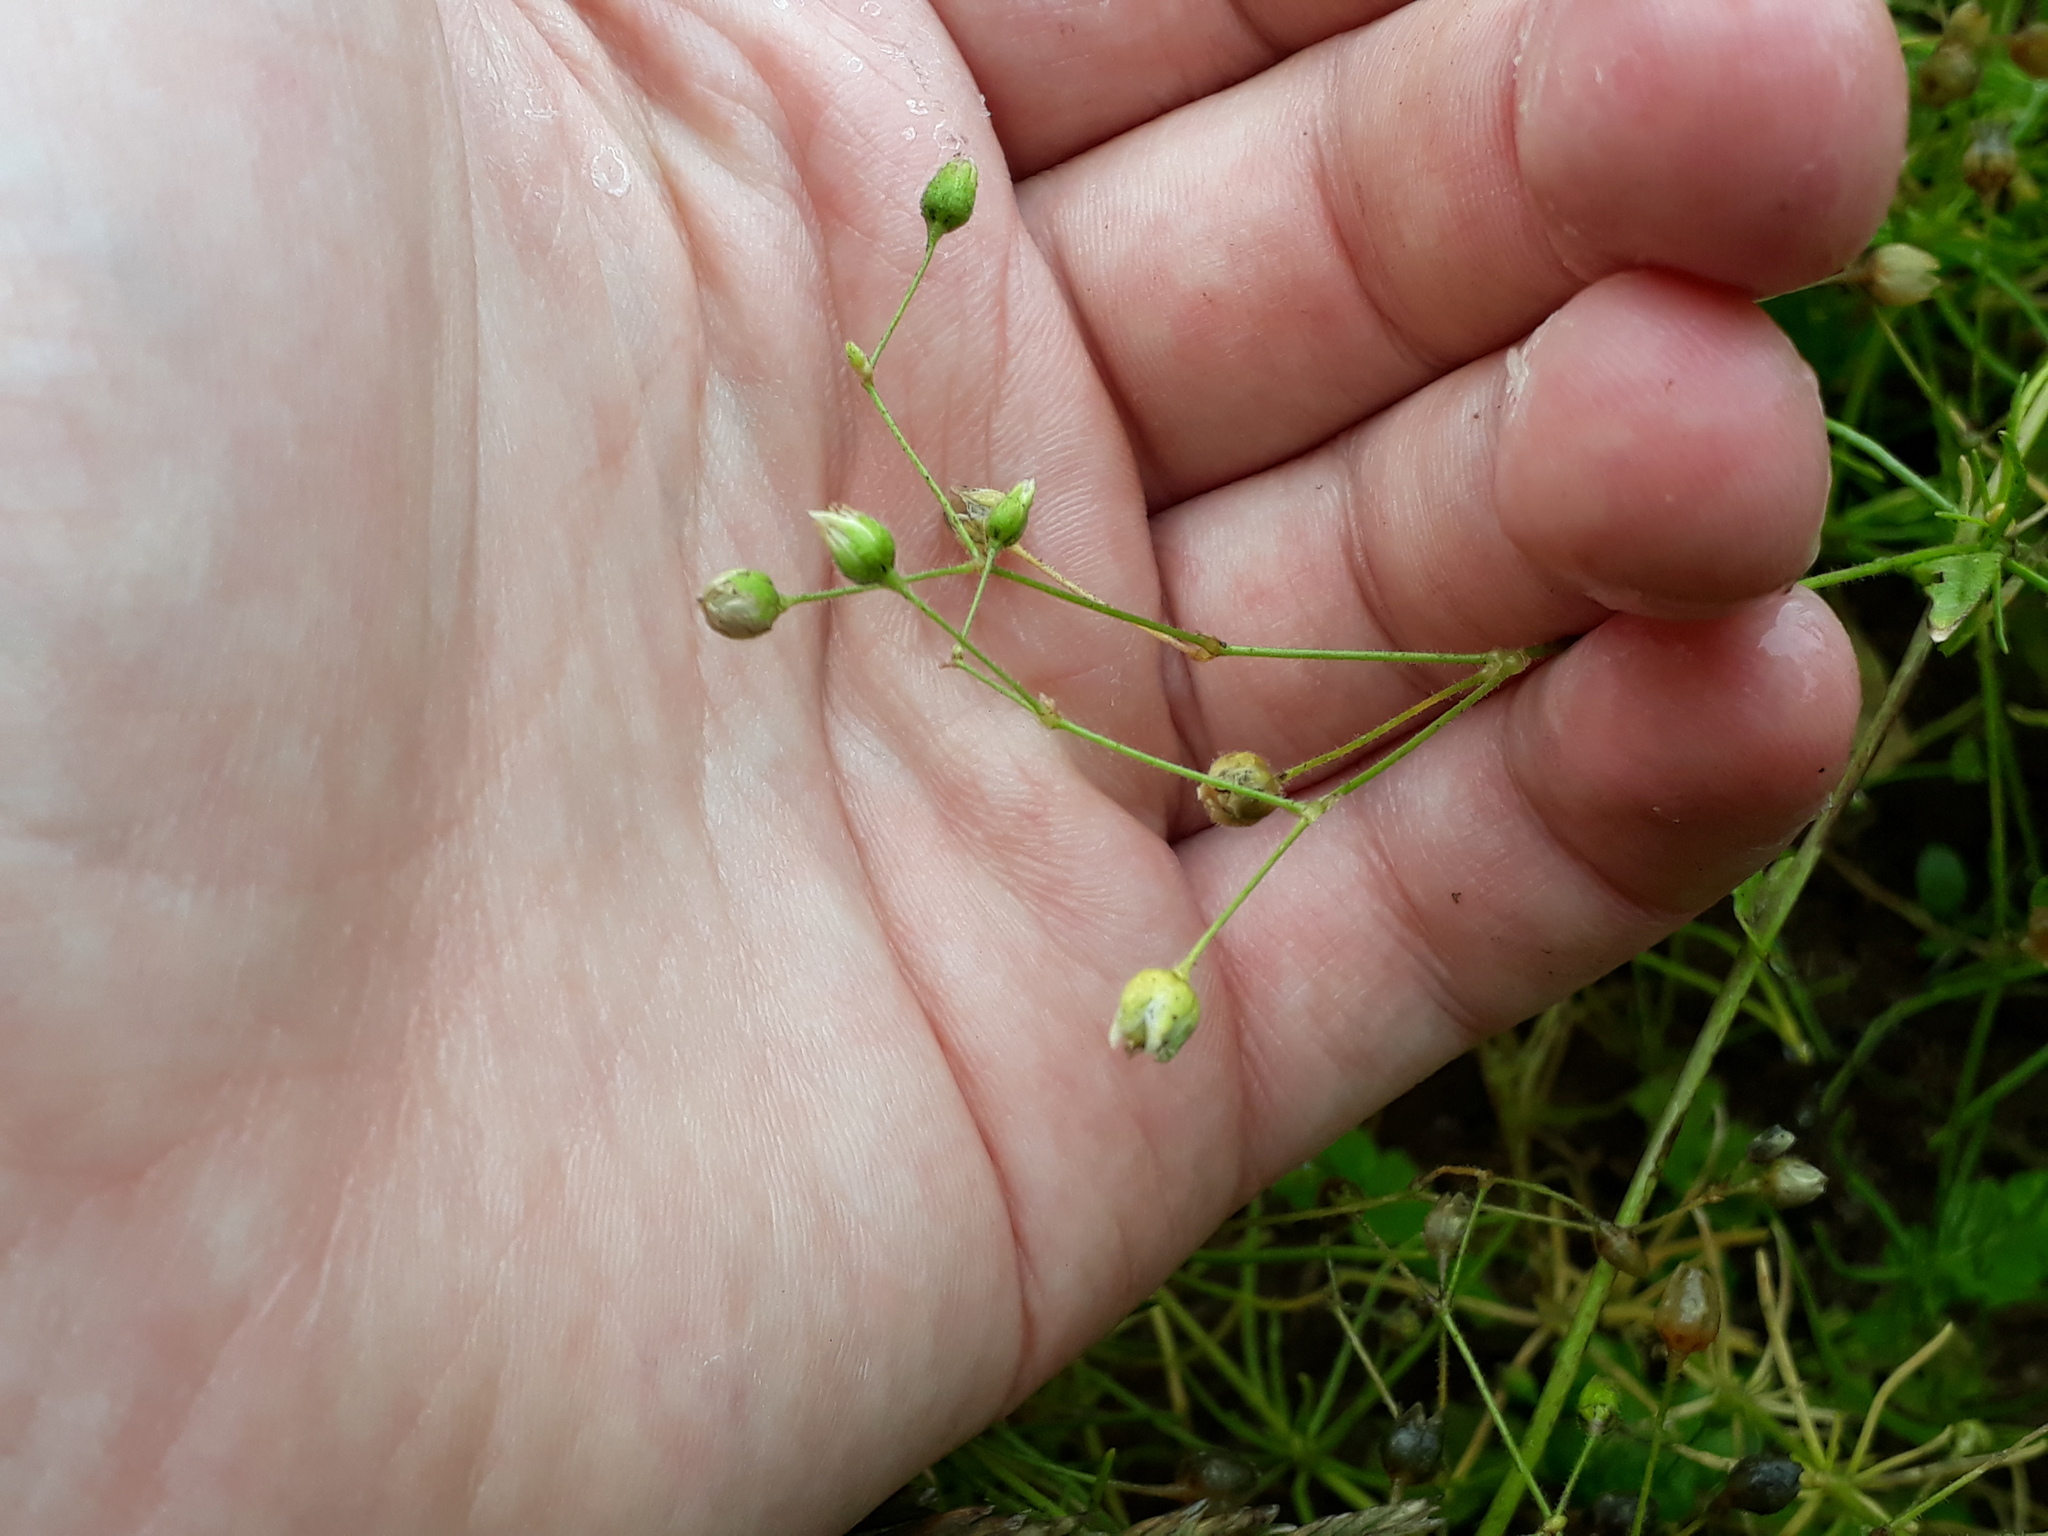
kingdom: Plantae
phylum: Tracheophyta
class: Magnoliopsida
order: Caryophyllales
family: Caryophyllaceae
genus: Spergula
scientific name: Spergula arvensis
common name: Corn spurrey
